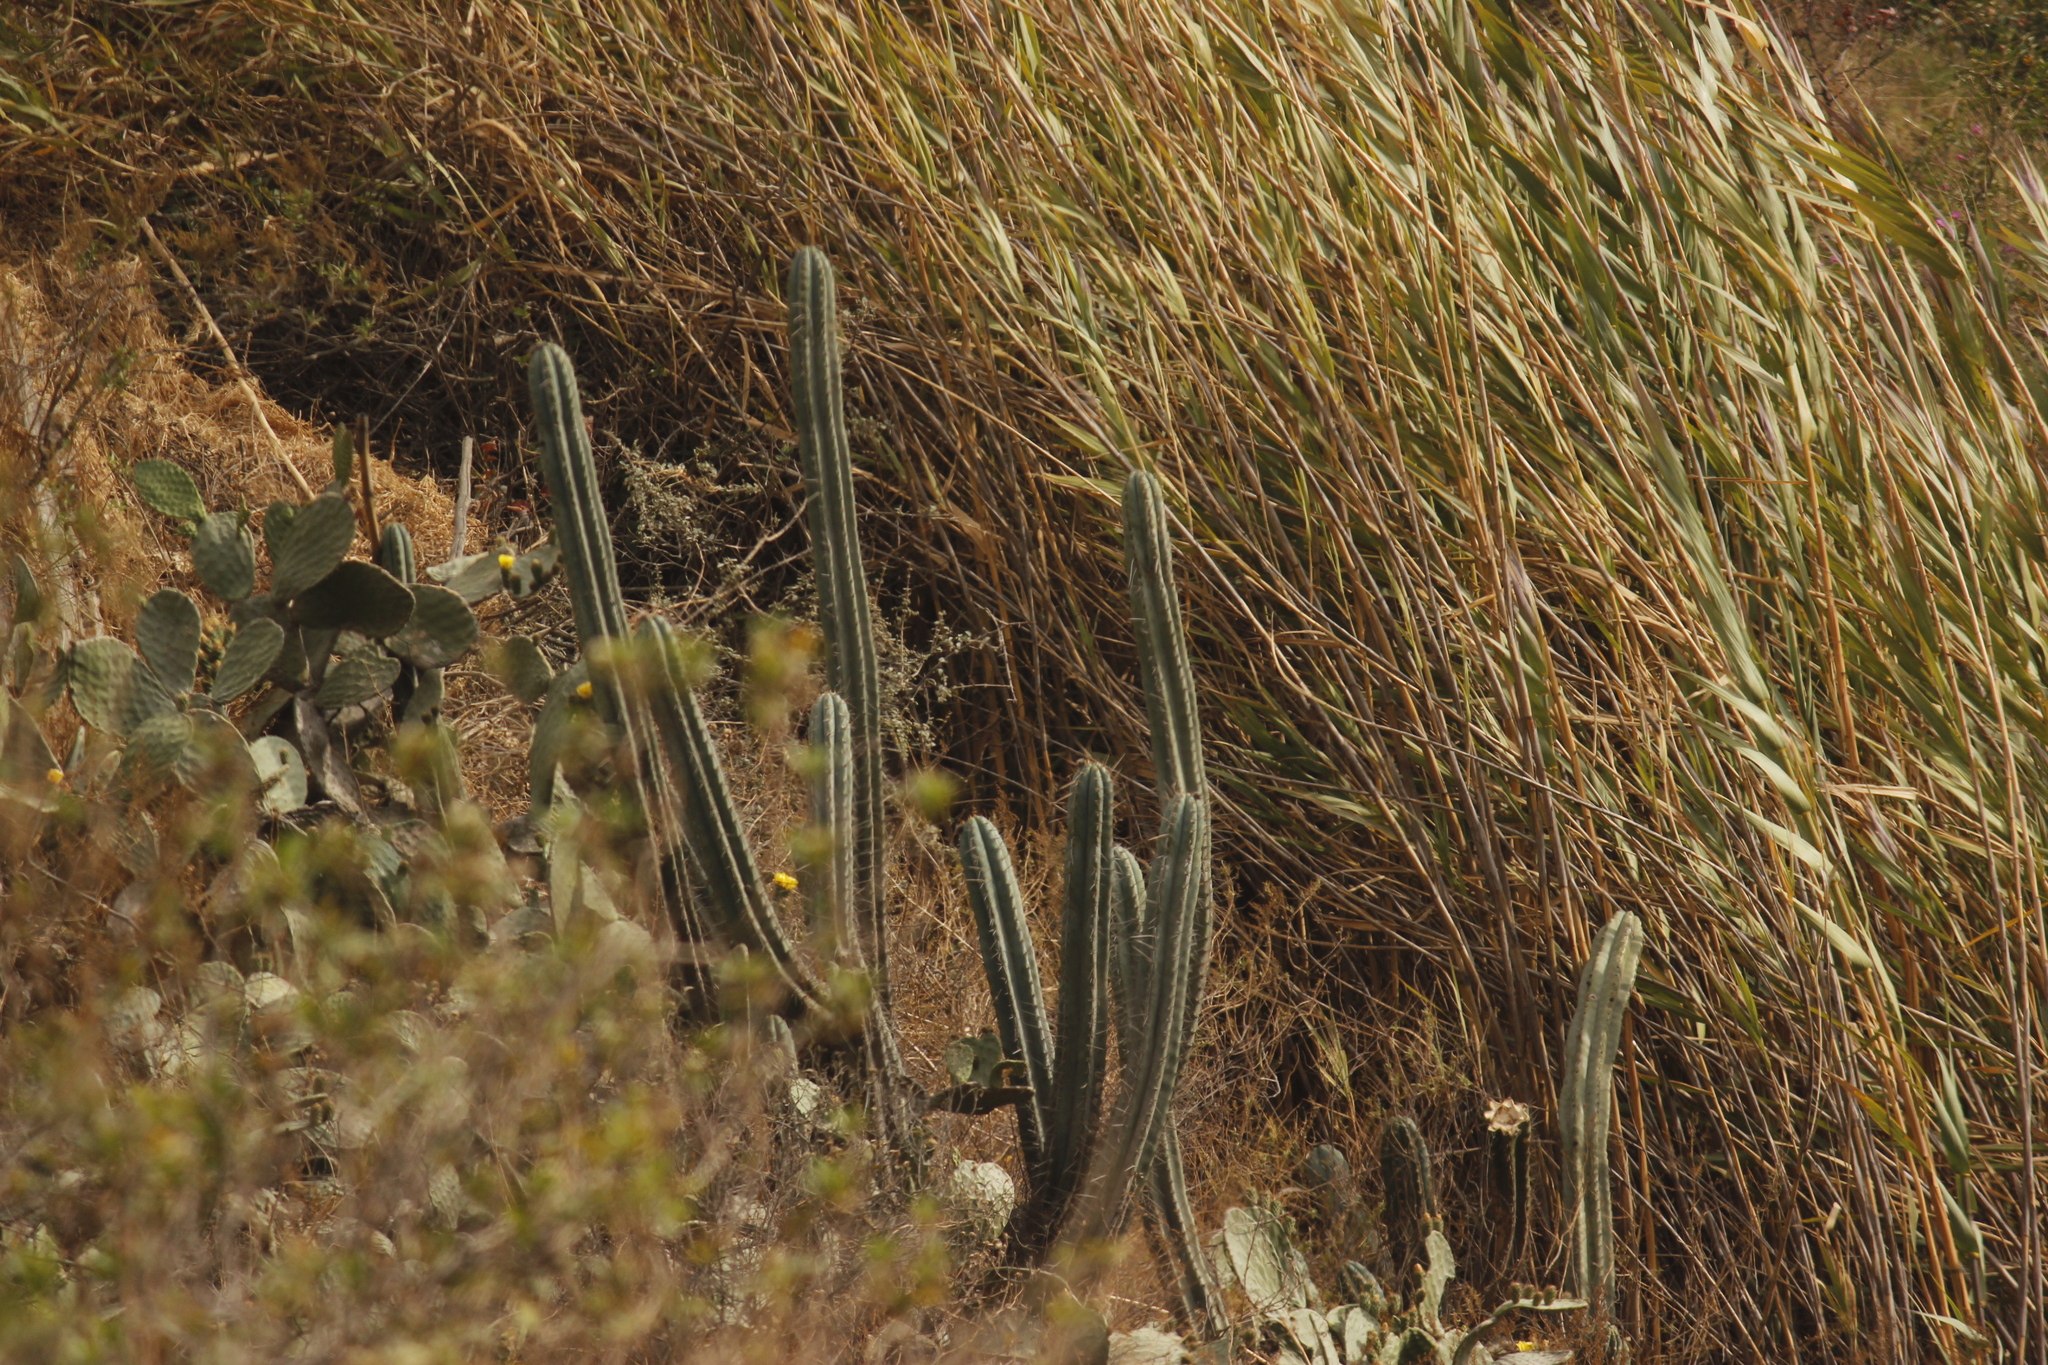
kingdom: Plantae
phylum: Tracheophyta
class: Magnoliopsida
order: Caryophyllales
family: Cactaceae
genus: Trichocereus
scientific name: Trichocereus macrogonus
